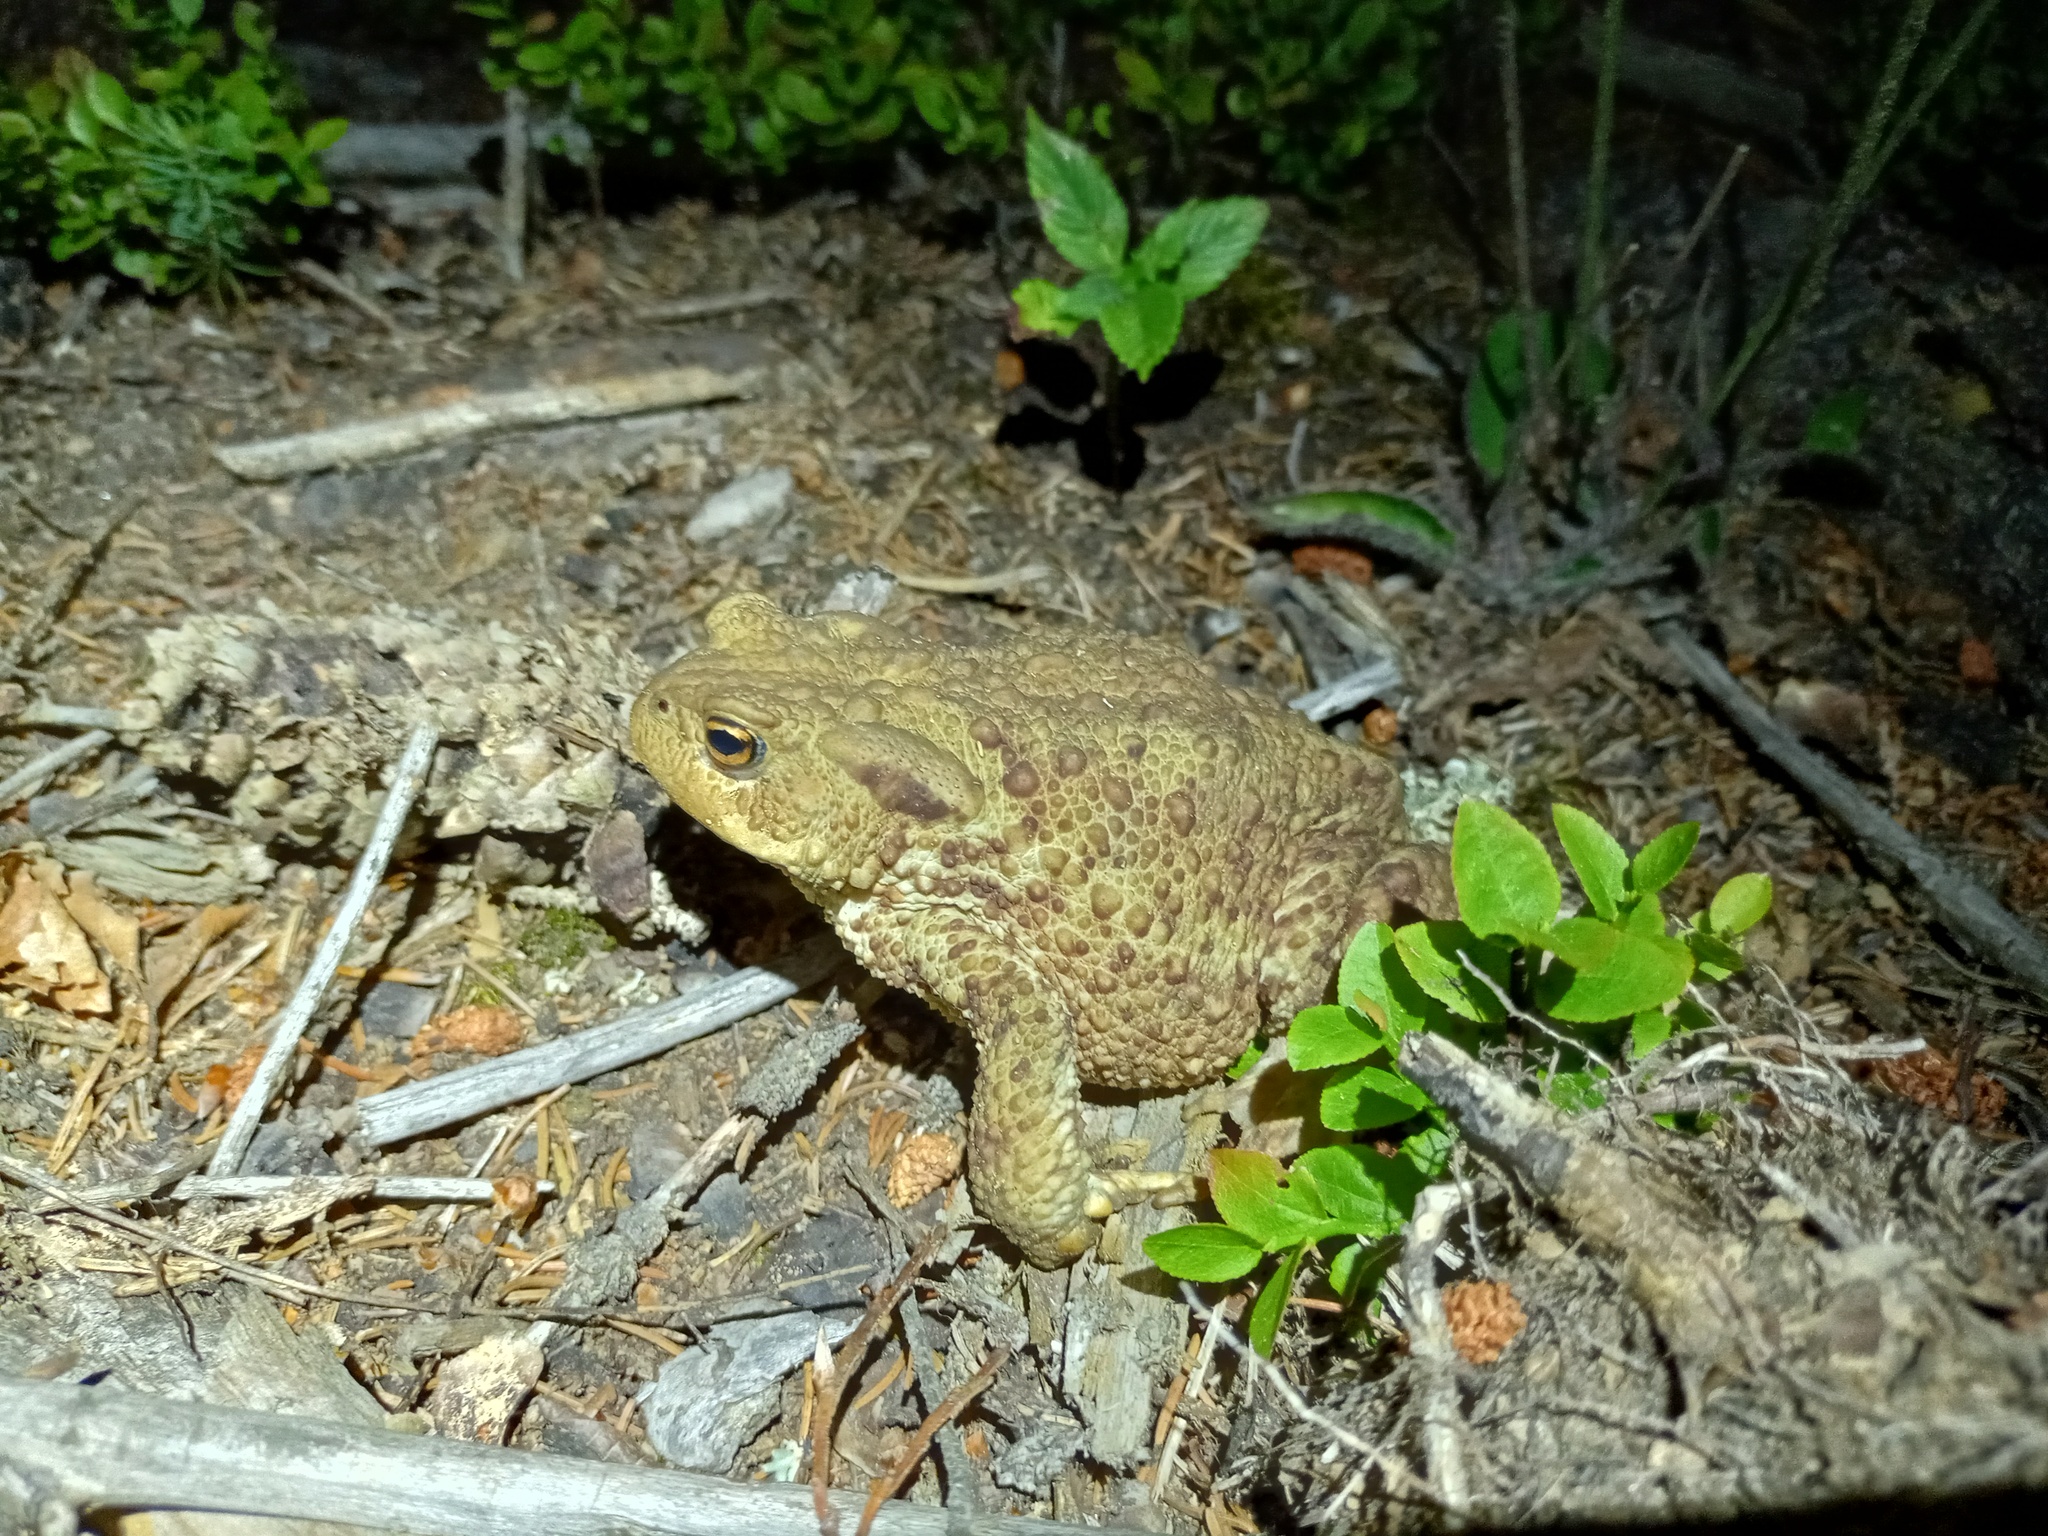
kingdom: Animalia
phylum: Chordata
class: Amphibia
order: Anura
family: Bufonidae
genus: Bufo
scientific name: Bufo bufo
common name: Common toad
